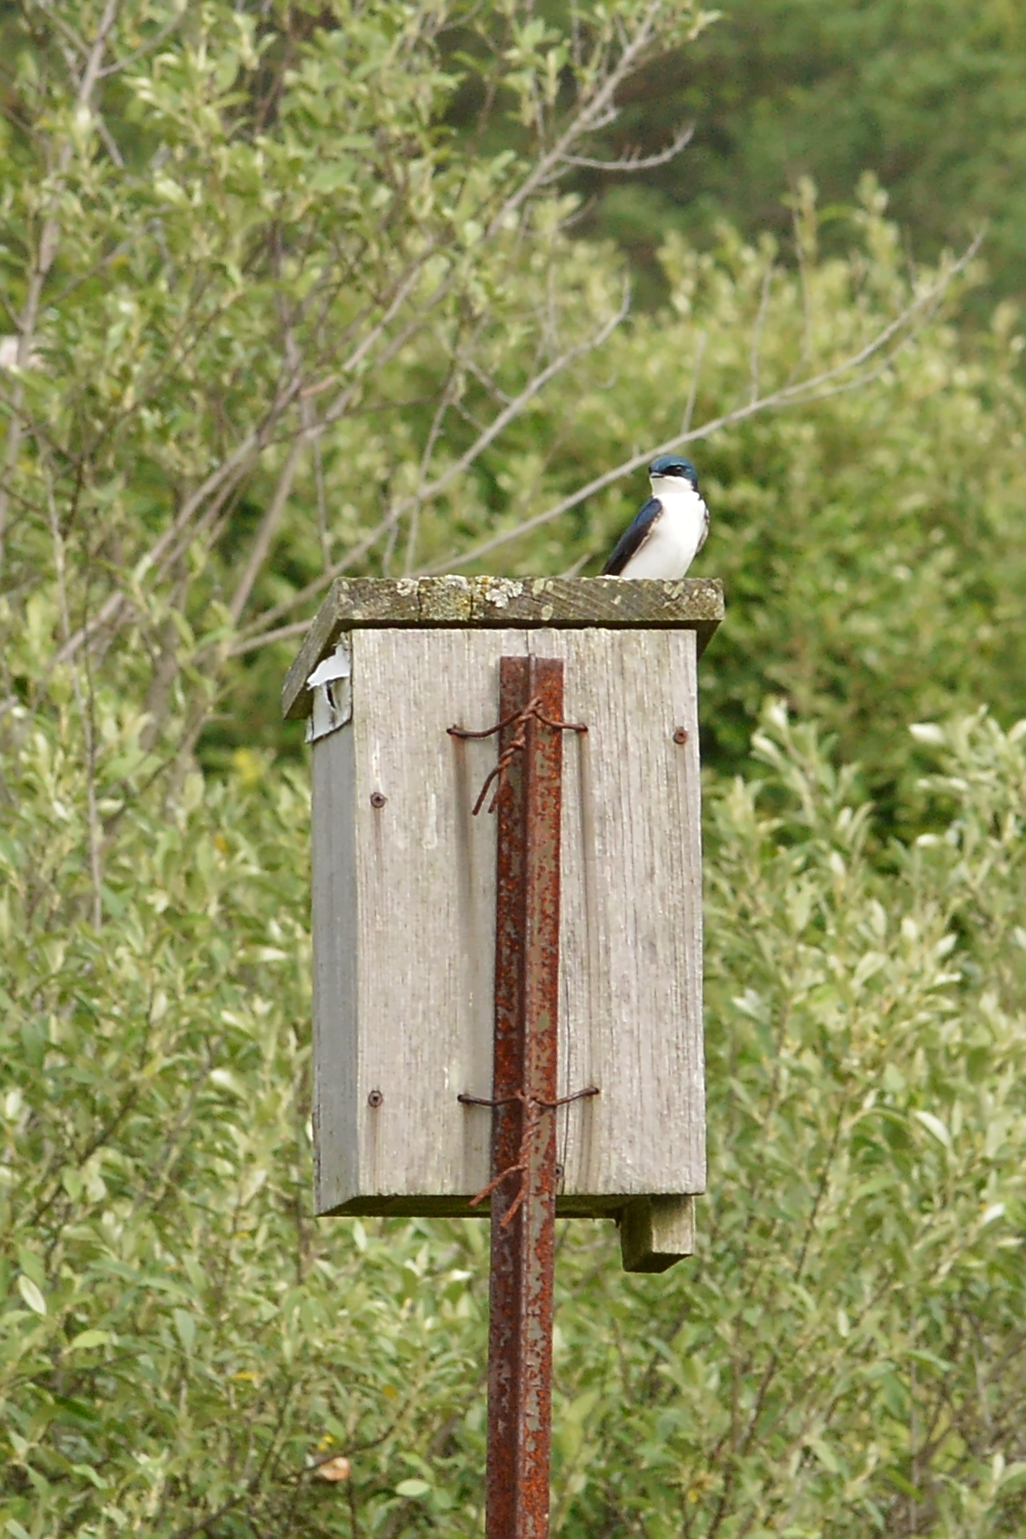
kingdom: Animalia
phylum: Chordata
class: Aves
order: Passeriformes
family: Hirundinidae
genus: Tachycineta
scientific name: Tachycineta bicolor
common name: Tree swallow
